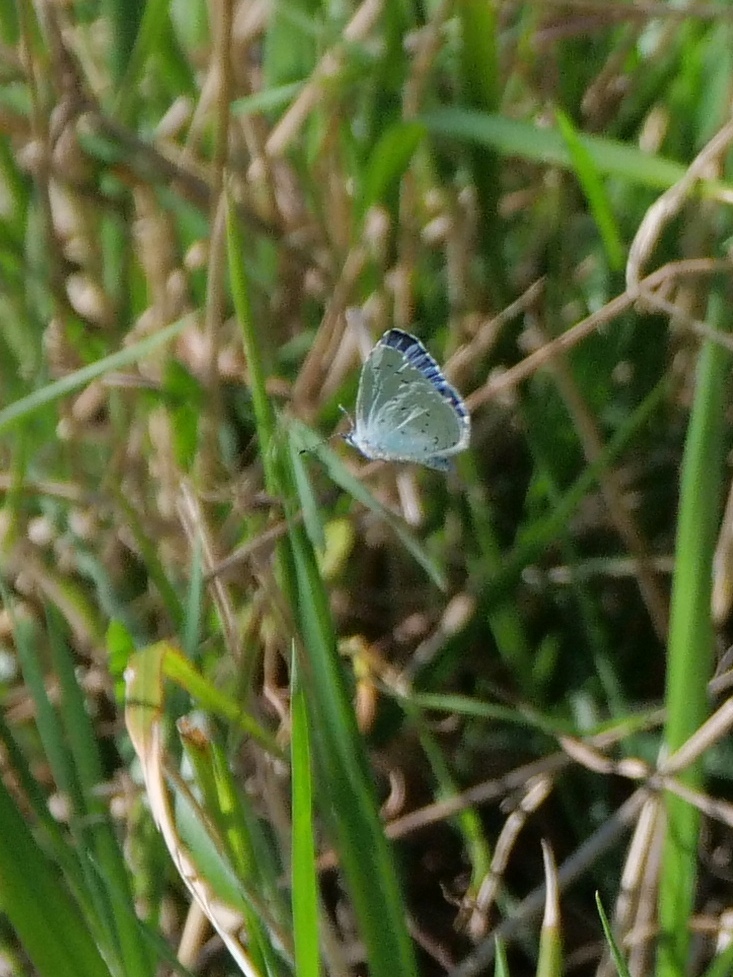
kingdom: Animalia
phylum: Arthropoda
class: Insecta
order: Lepidoptera
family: Lycaenidae
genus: Celastrina
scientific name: Celastrina argiolus
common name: Holly blue
